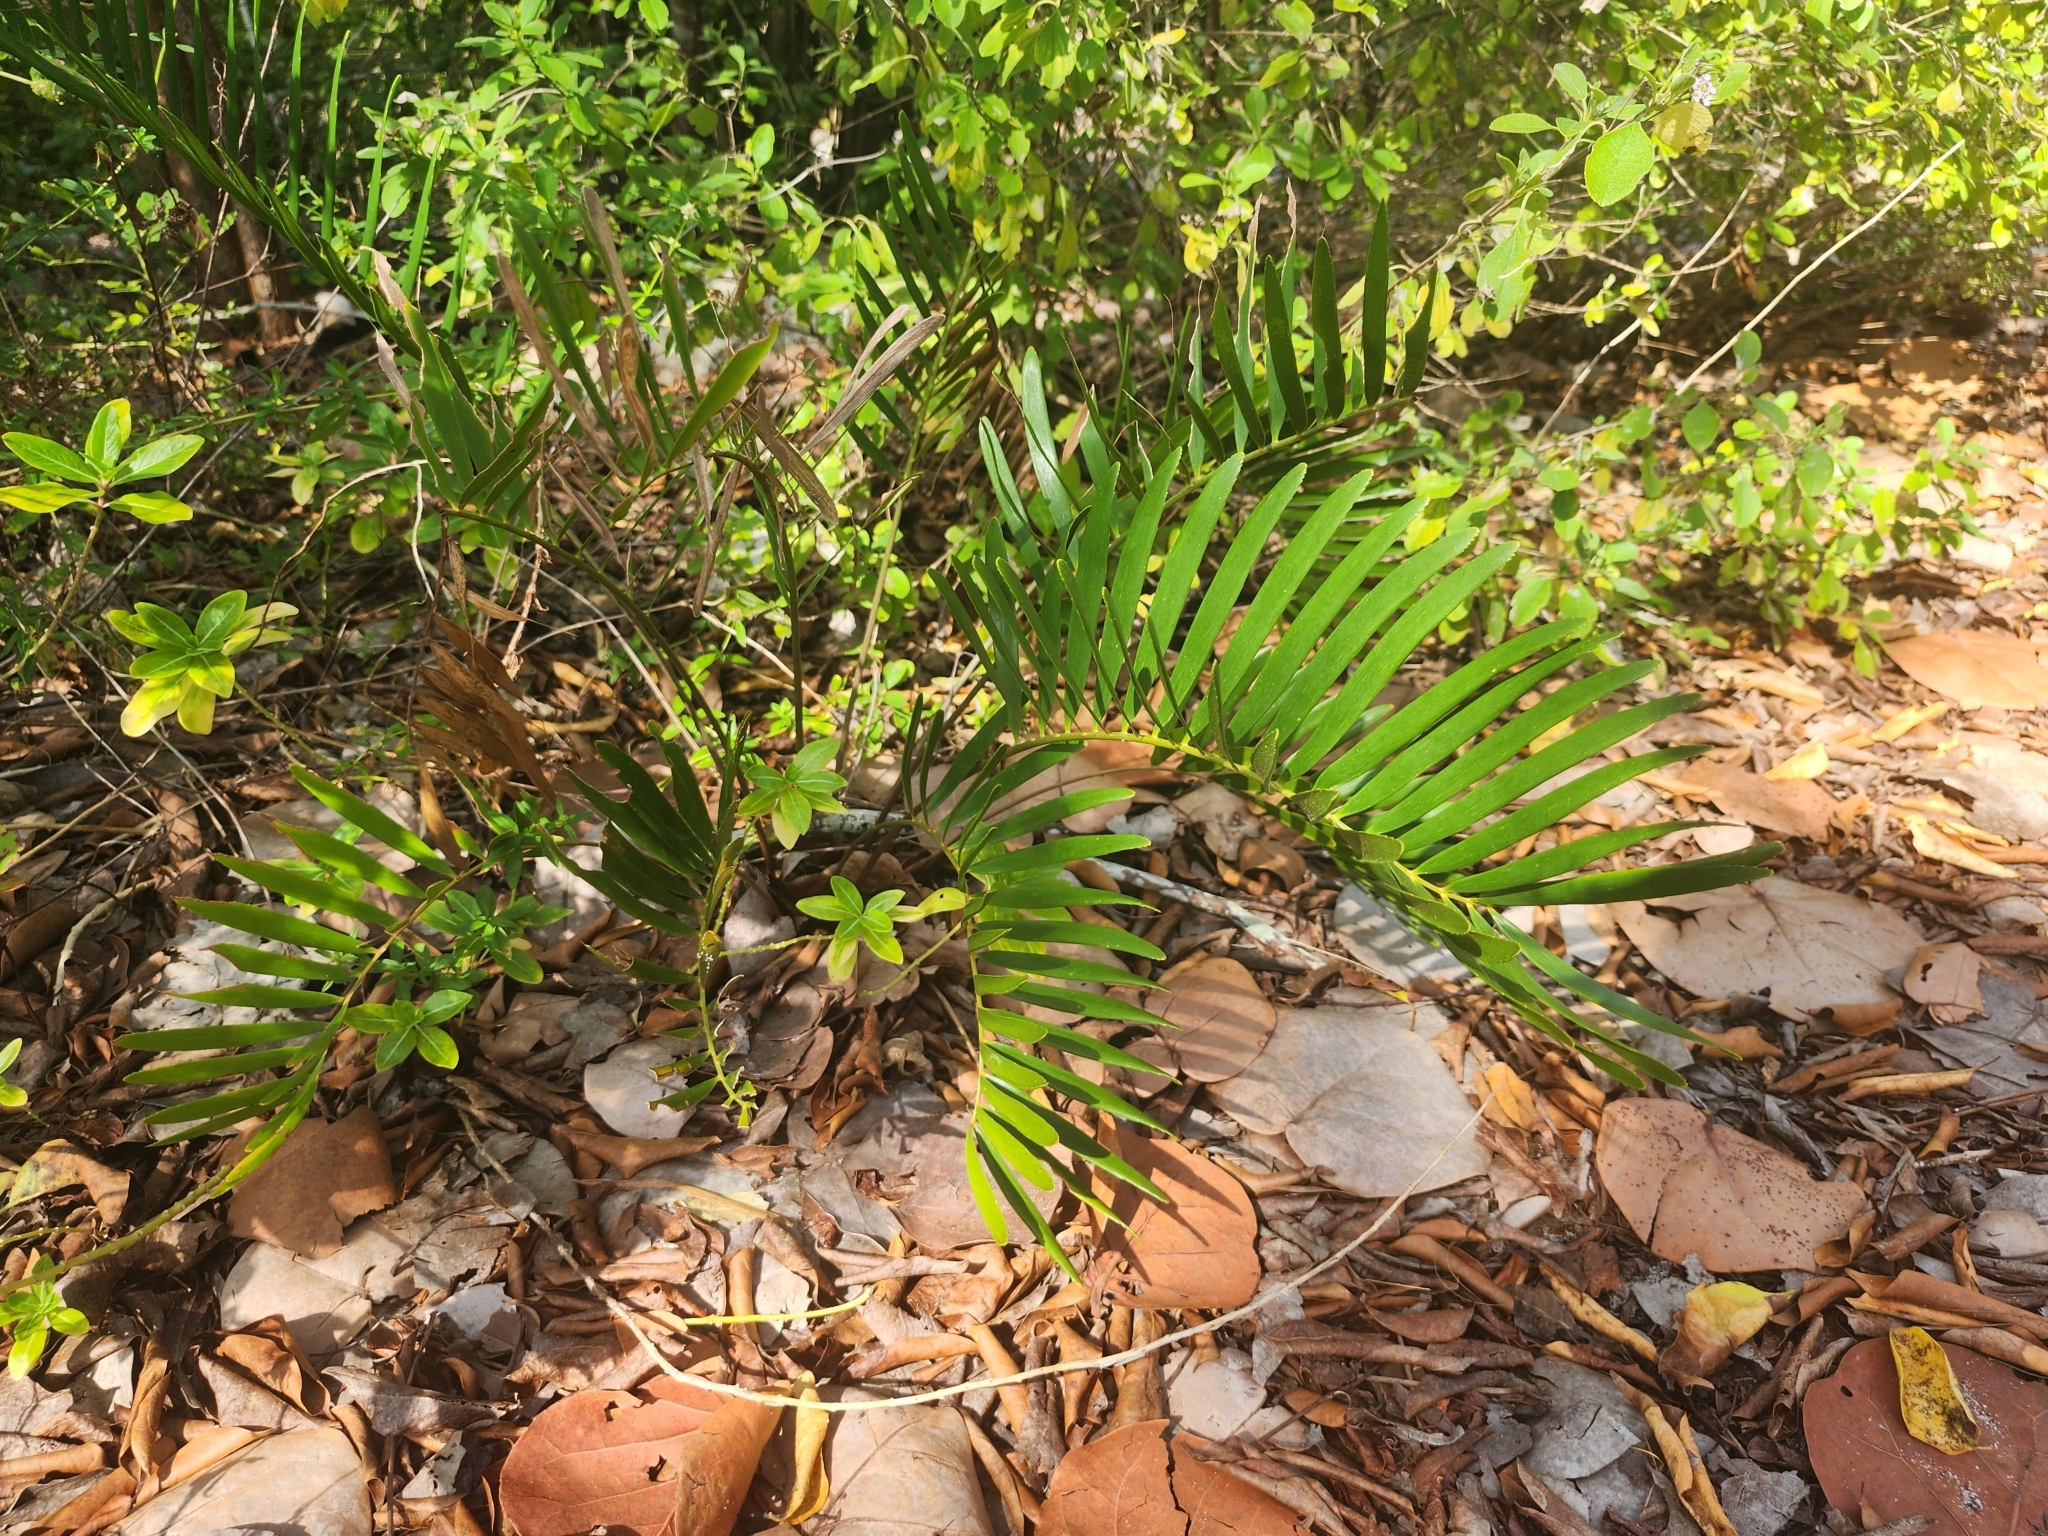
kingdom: Plantae
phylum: Tracheophyta
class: Cycadopsida
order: Cycadales
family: Zamiaceae
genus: Zamia
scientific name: Zamia integrifolia
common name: Florida arrowroot
